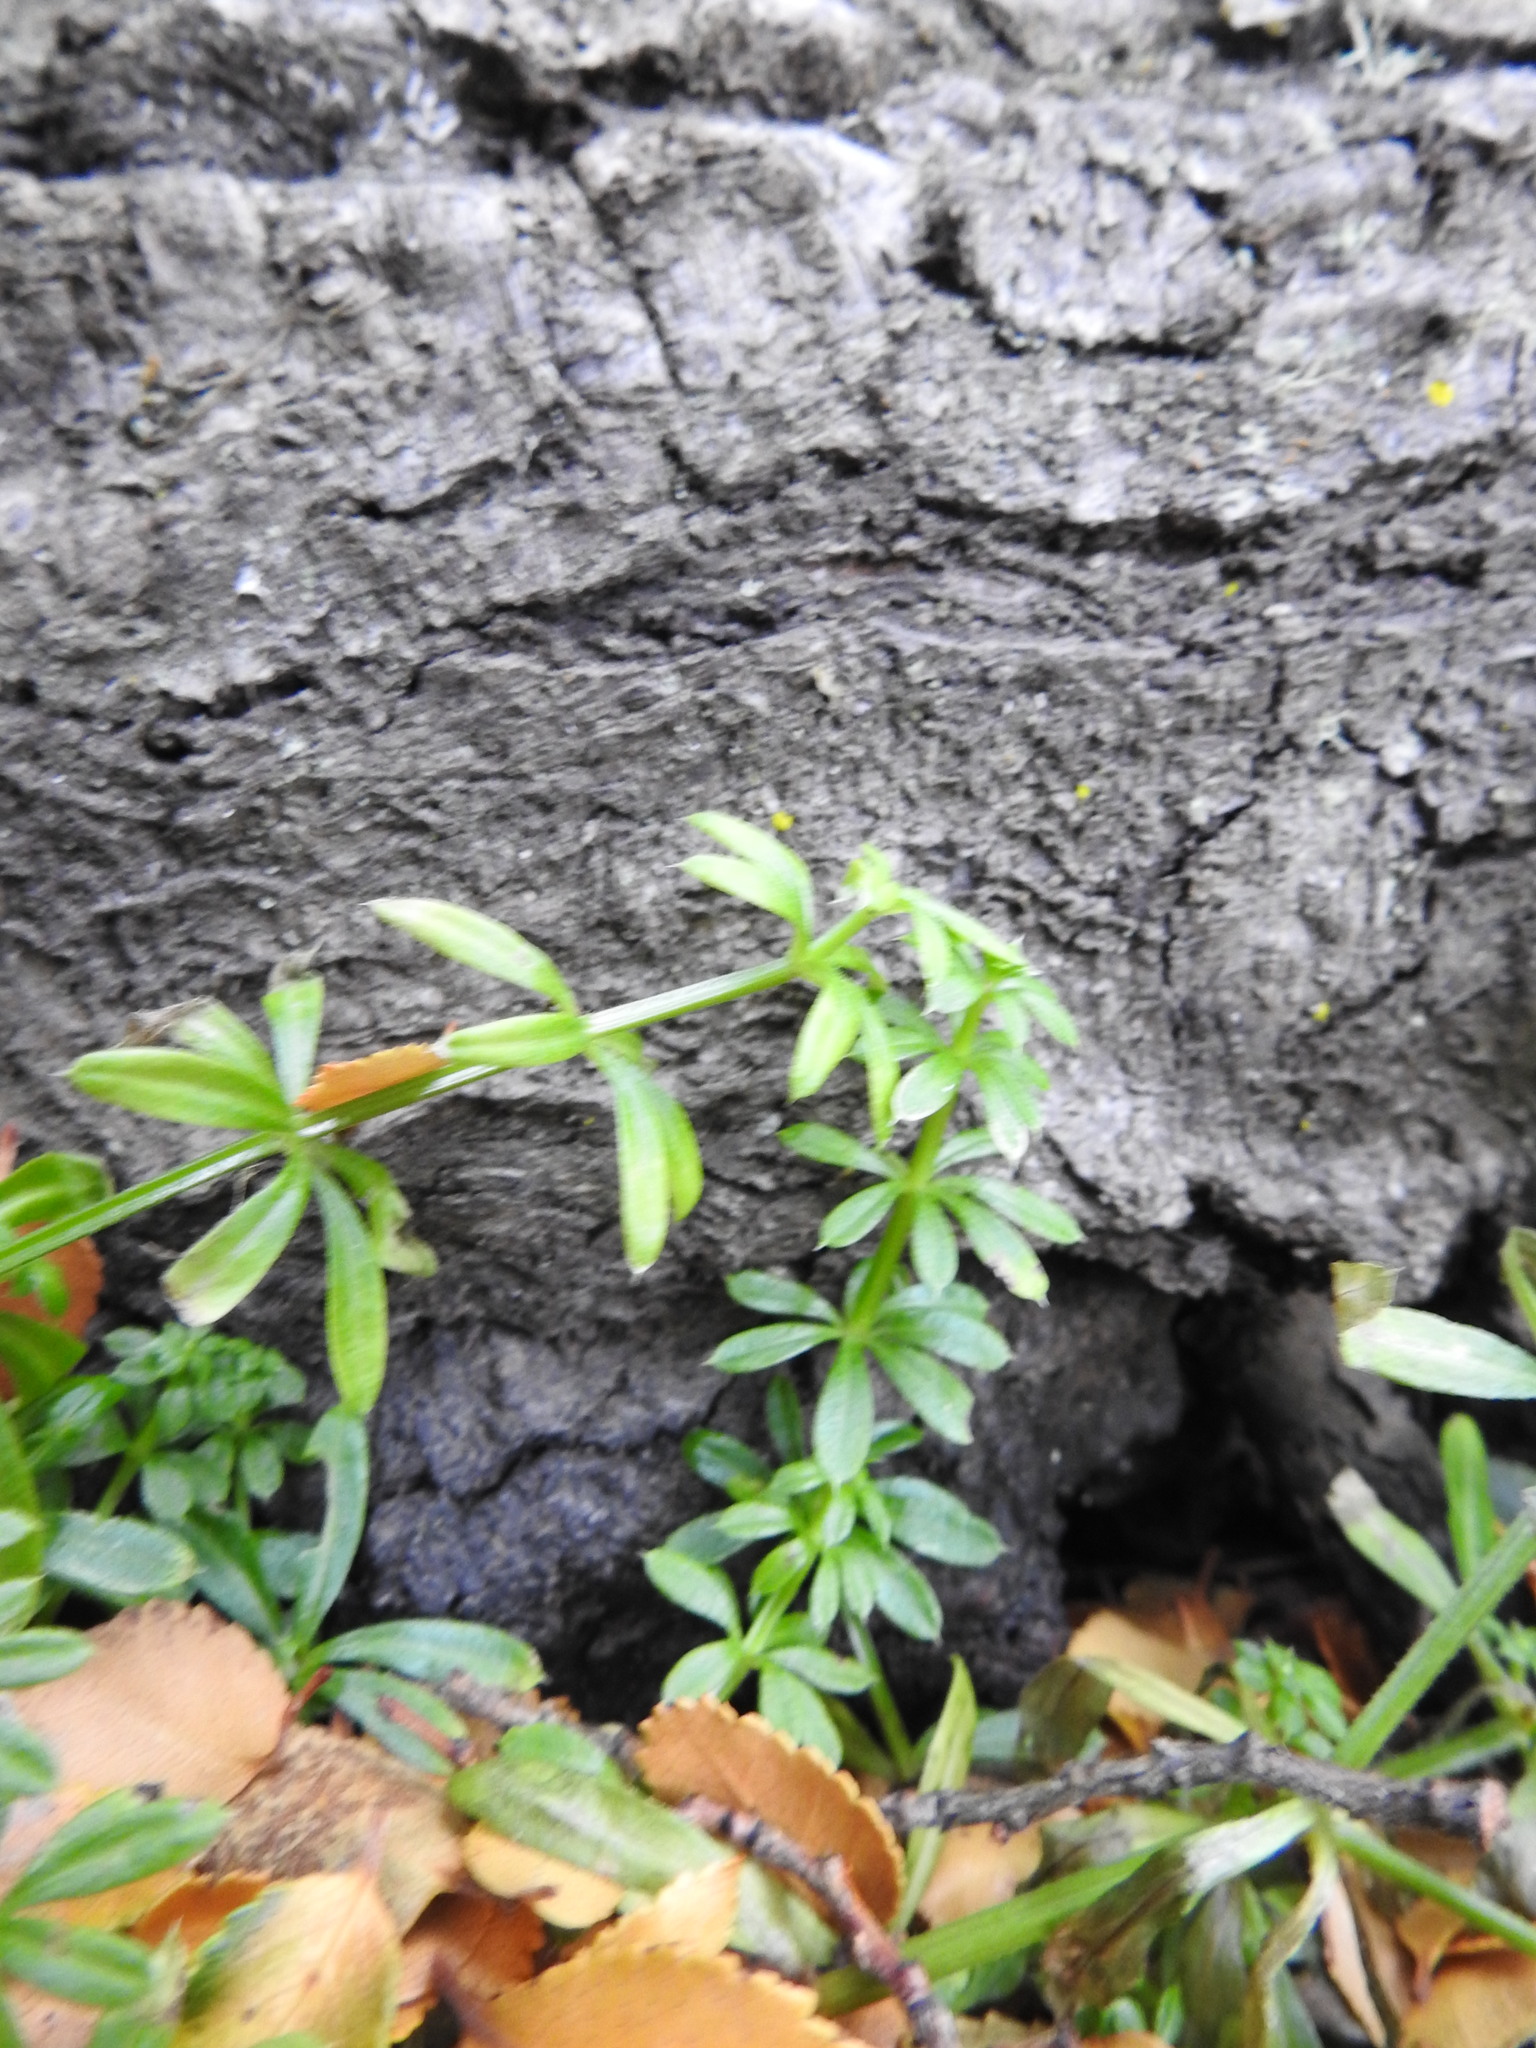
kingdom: Plantae
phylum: Tracheophyta
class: Magnoliopsida
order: Gentianales
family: Rubiaceae
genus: Galium
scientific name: Galium aparine
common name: Cleavers
